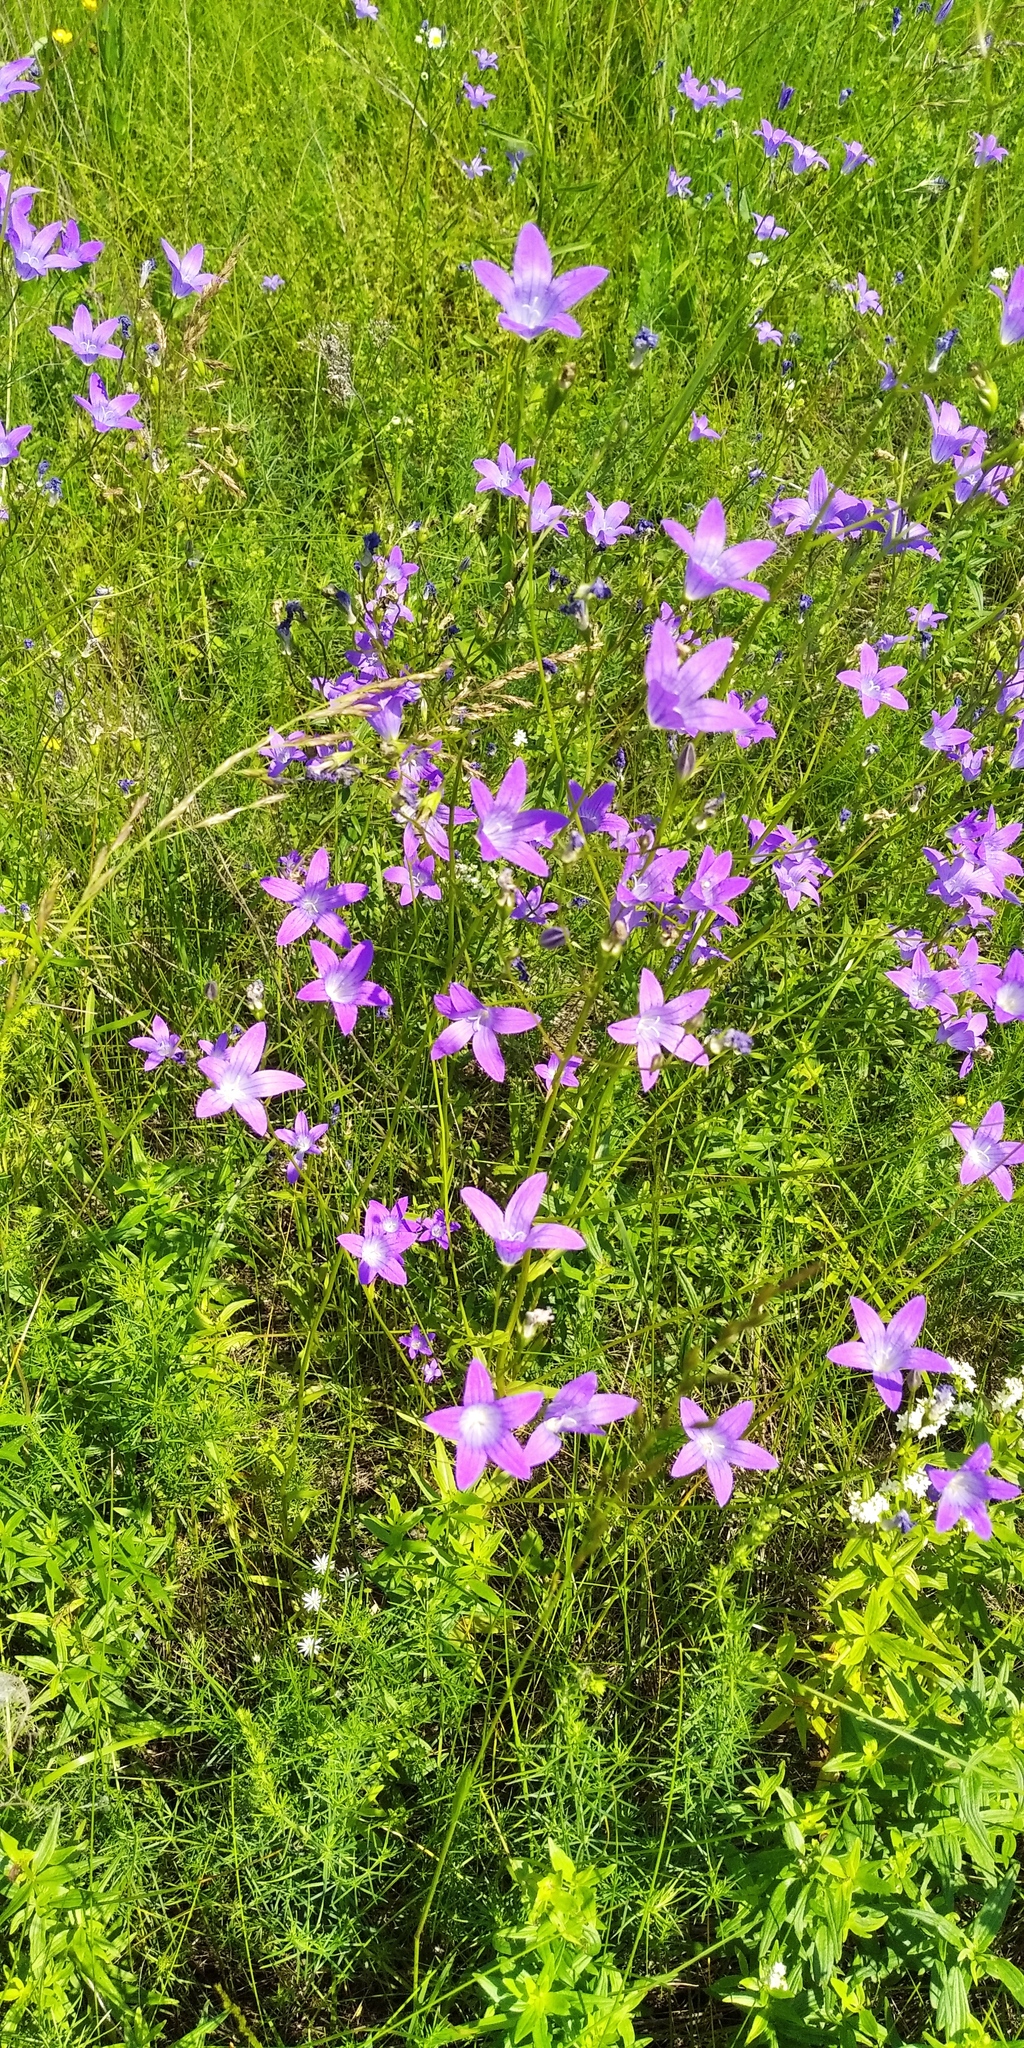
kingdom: Plantae
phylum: Tracheophyta
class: Magnoliopsida
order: Asterales
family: Campanulaceae
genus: Campanula
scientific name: Campanula patula
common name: Spreading bellflower
